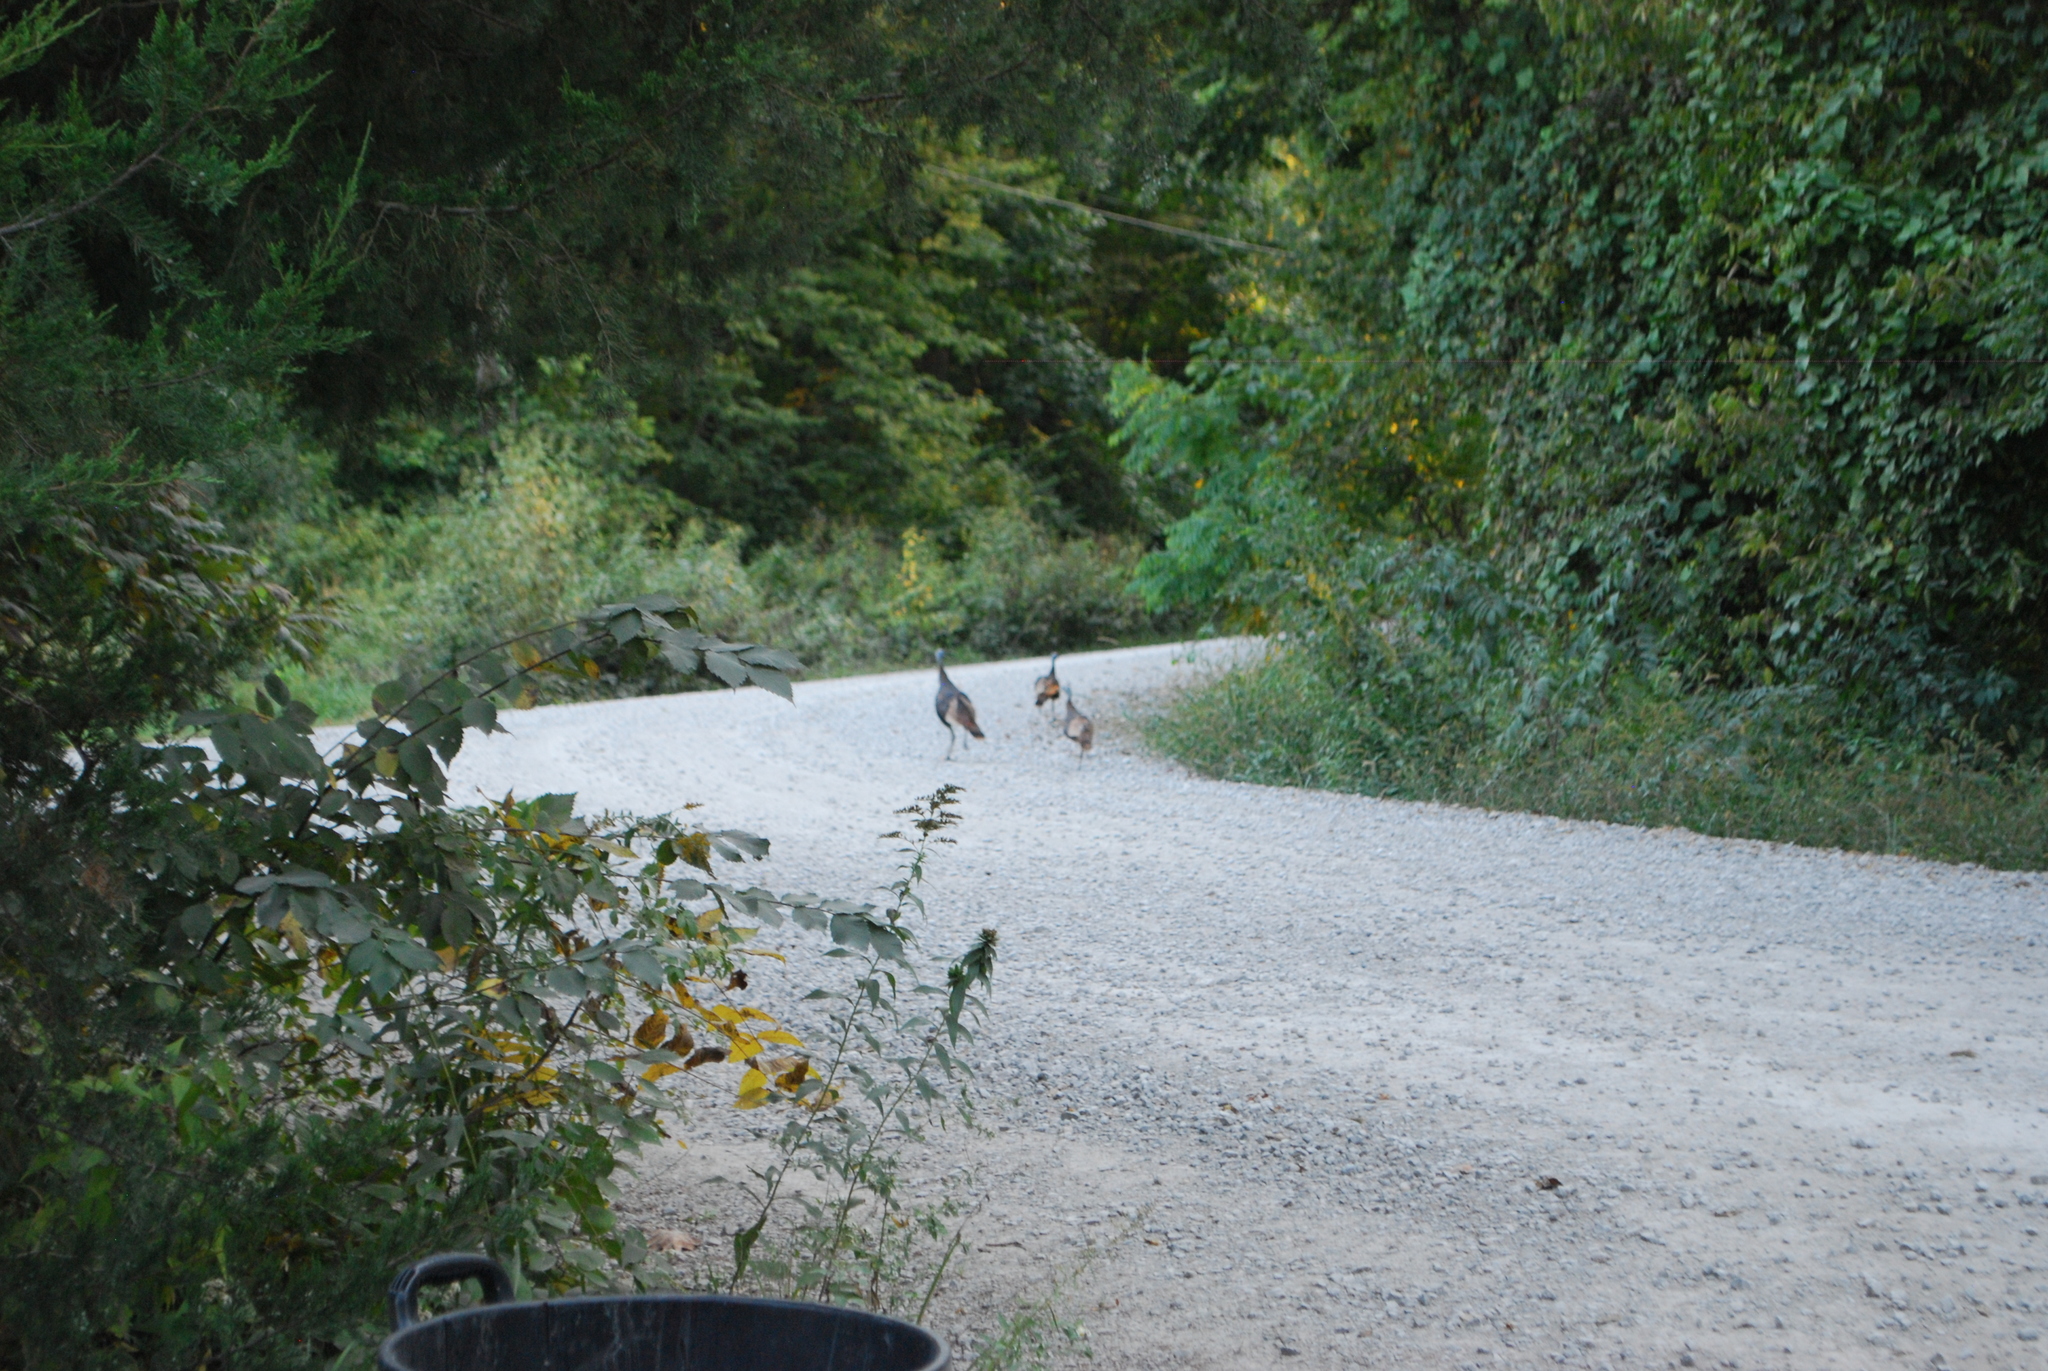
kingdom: Animalia
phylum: Chordata
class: Aves
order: Galliformes
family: Phasianidae
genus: Meleagris
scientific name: Meleagris gallopavo
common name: Wild turkey
